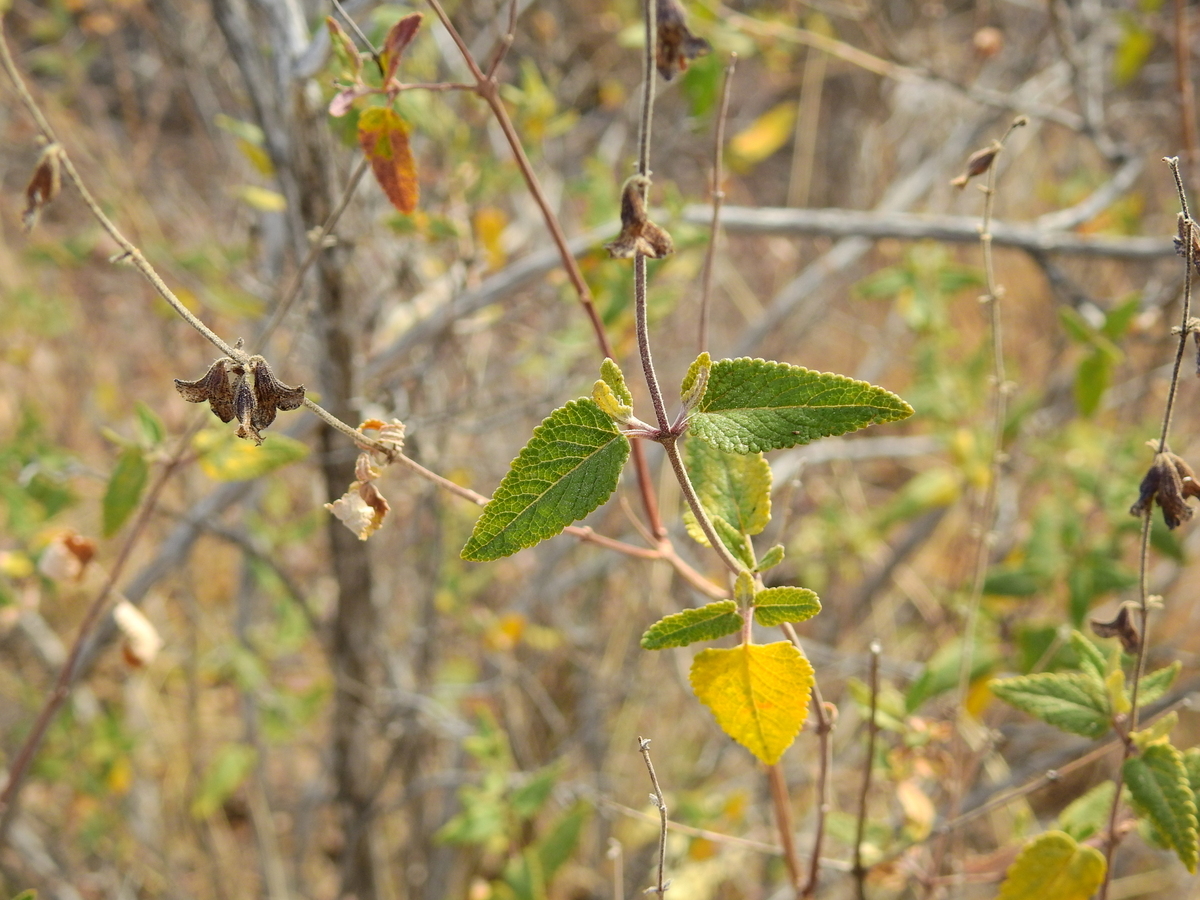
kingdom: Plantae
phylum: Tracheophyta
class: Magnoliopsida
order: Lamiales
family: Lamiaceae
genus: Salvia
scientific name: Salvia cuspidata
